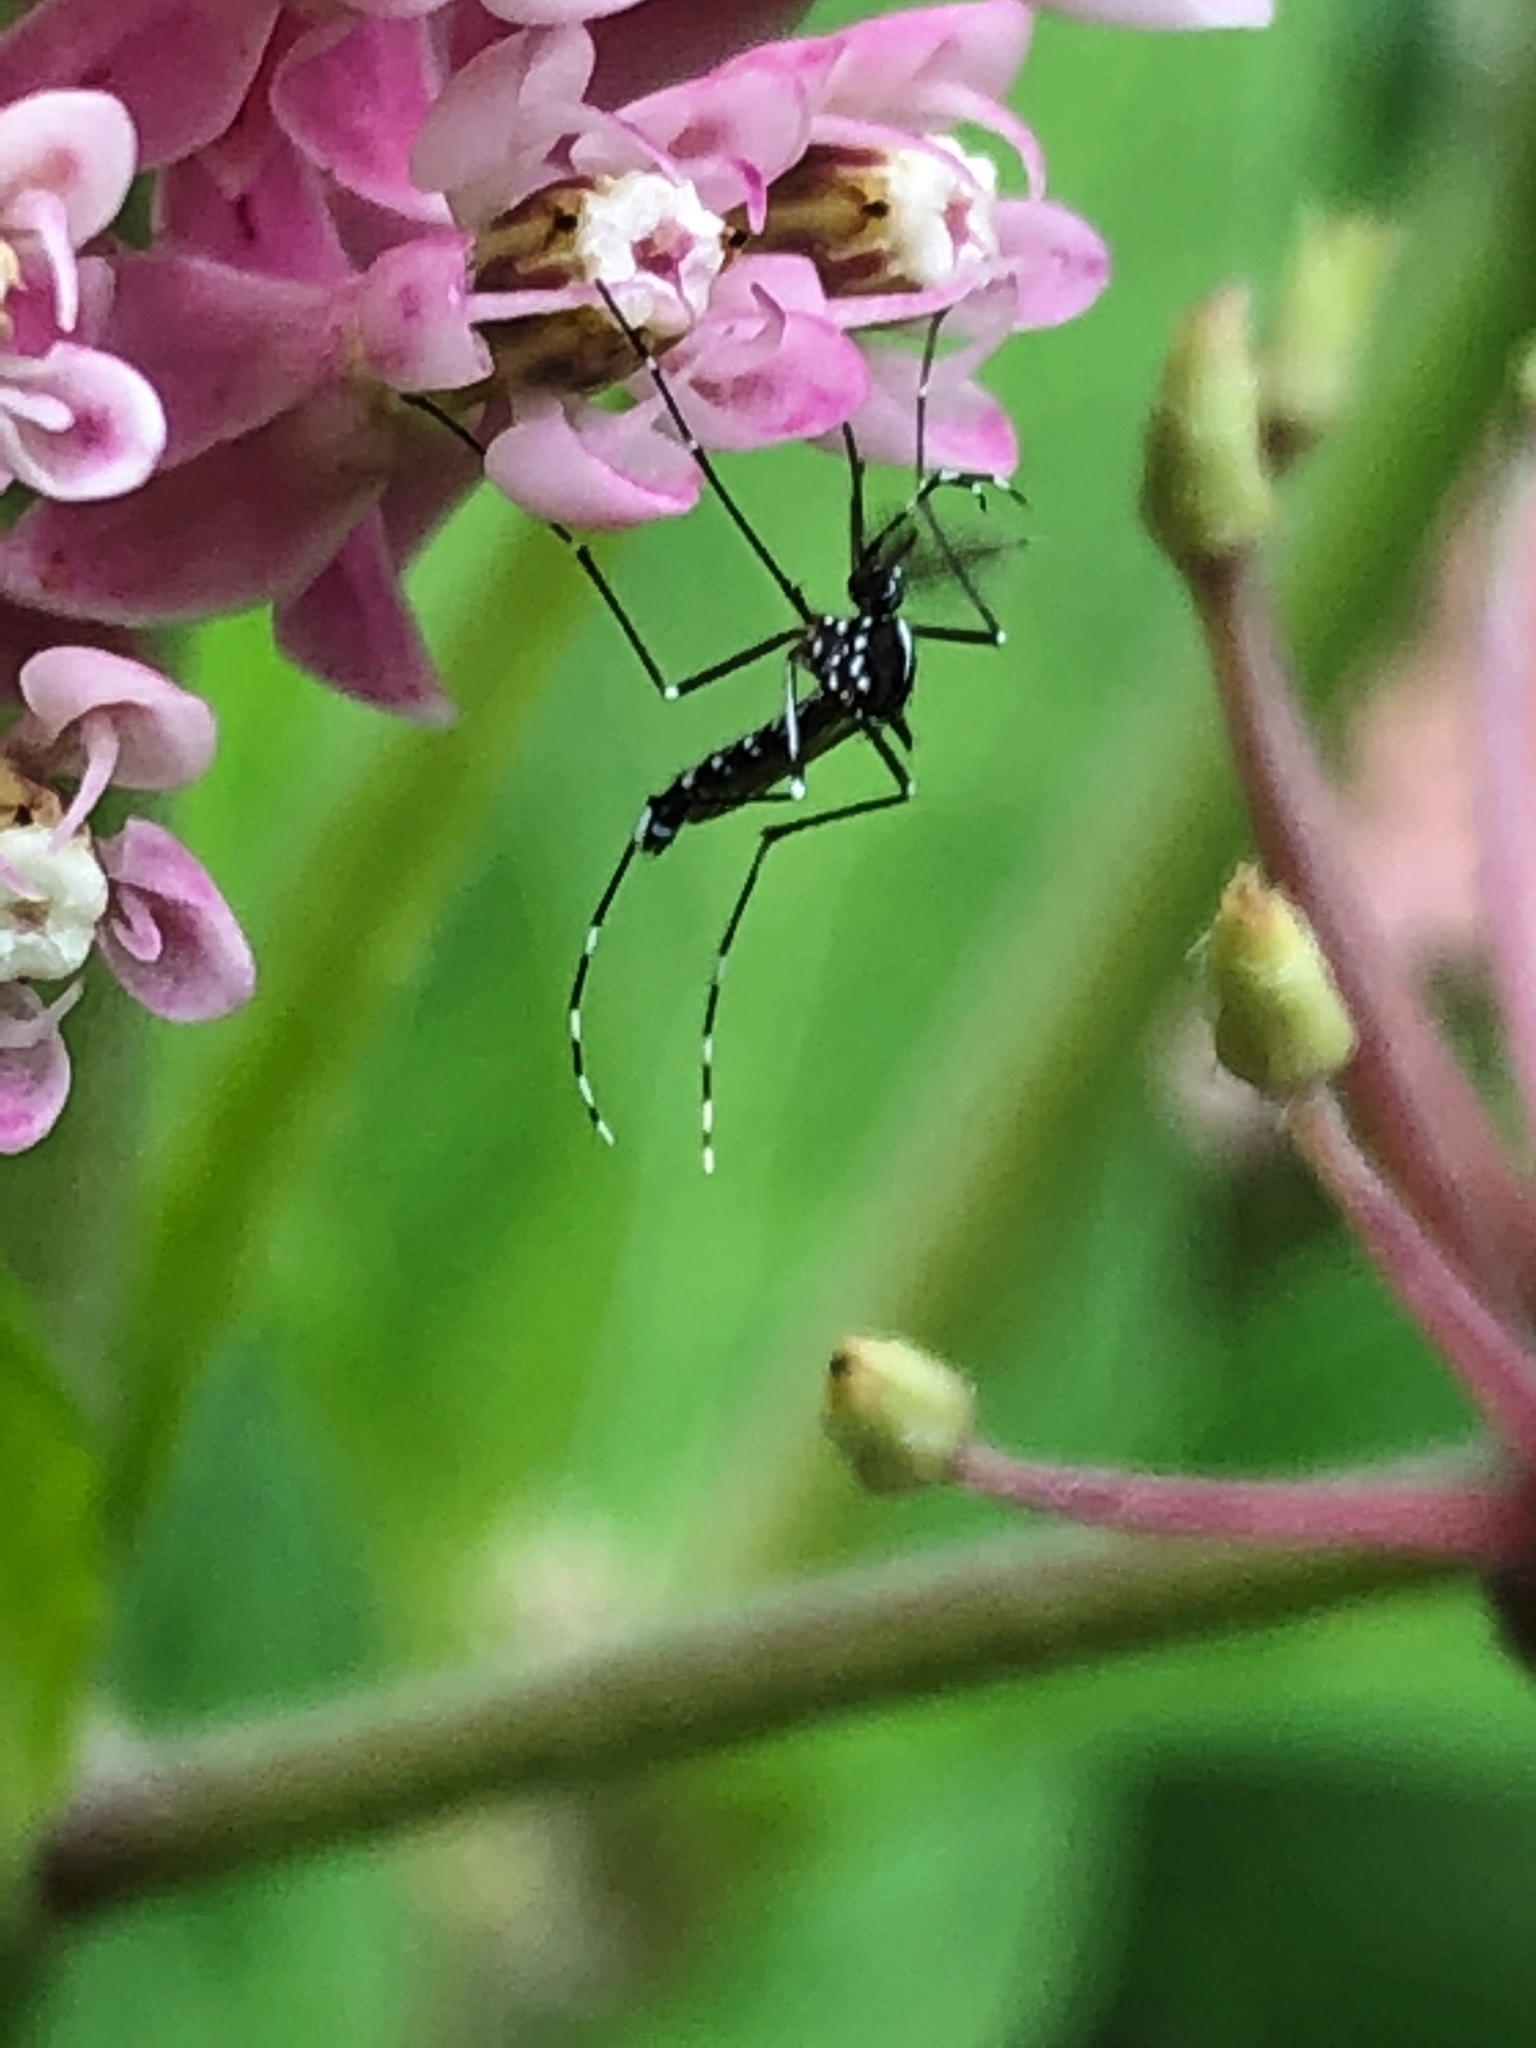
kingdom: Animalia
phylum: Arthropoda
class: Insecta
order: Diptera
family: Culicidae
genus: Aedes
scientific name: Aedes albopictus
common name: Tiger mosquito
